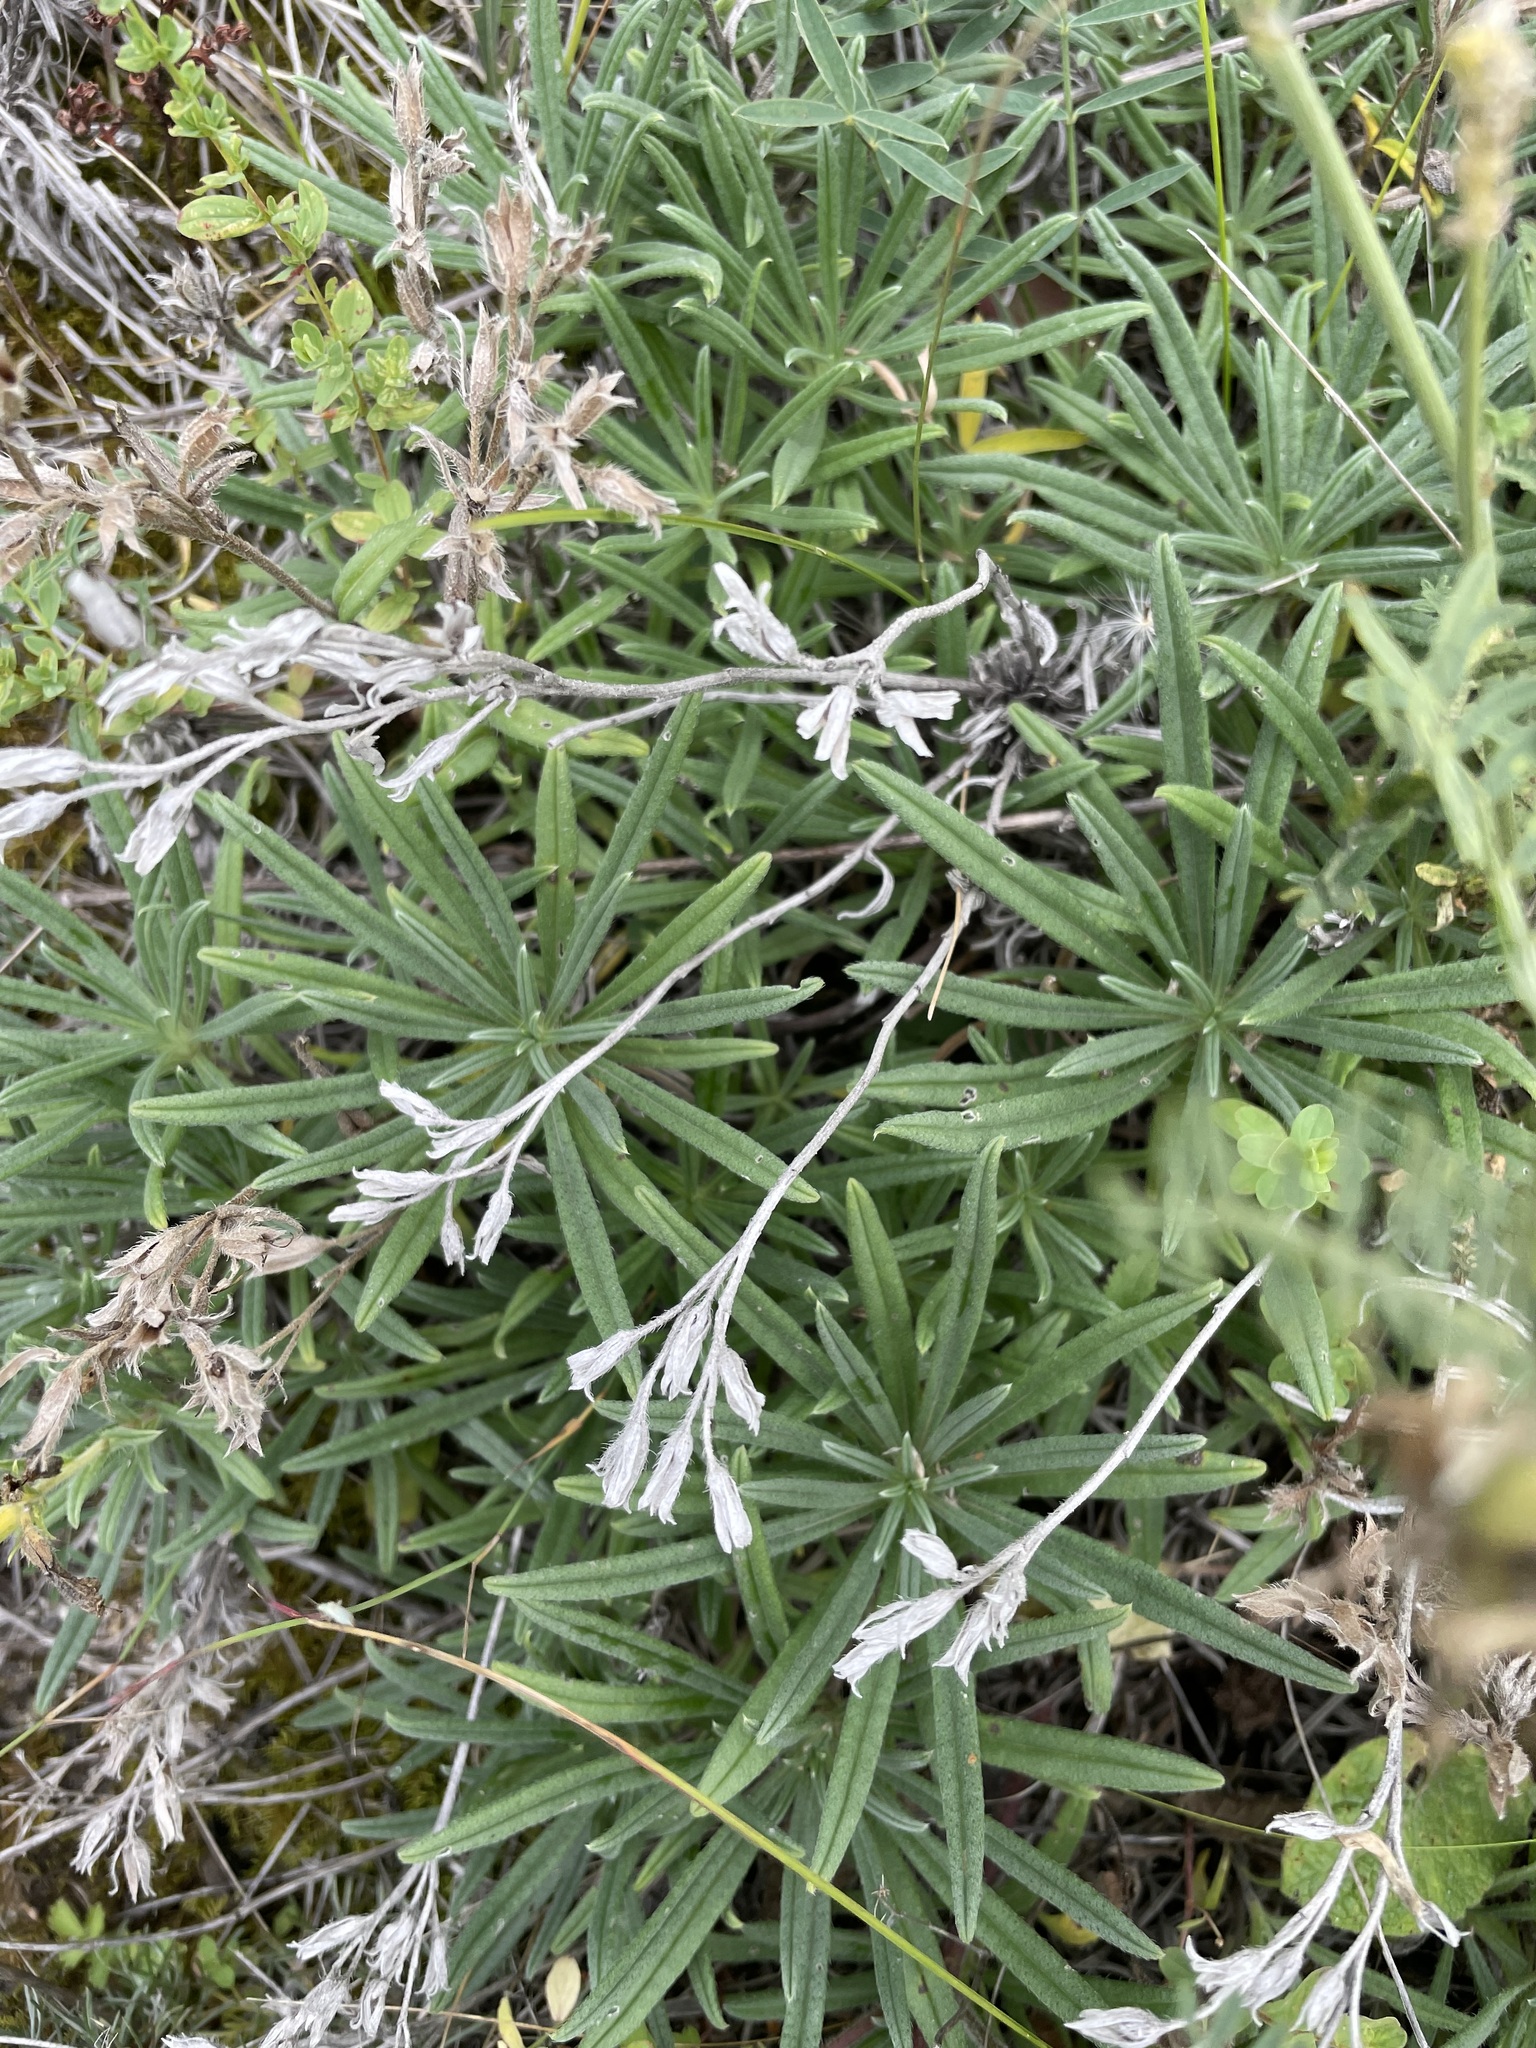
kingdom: Plantae
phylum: Tracheophyta
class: Magnoliopsida
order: Boraginales
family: Boraginaceae
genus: Onosma
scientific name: Onosma simplicissima
